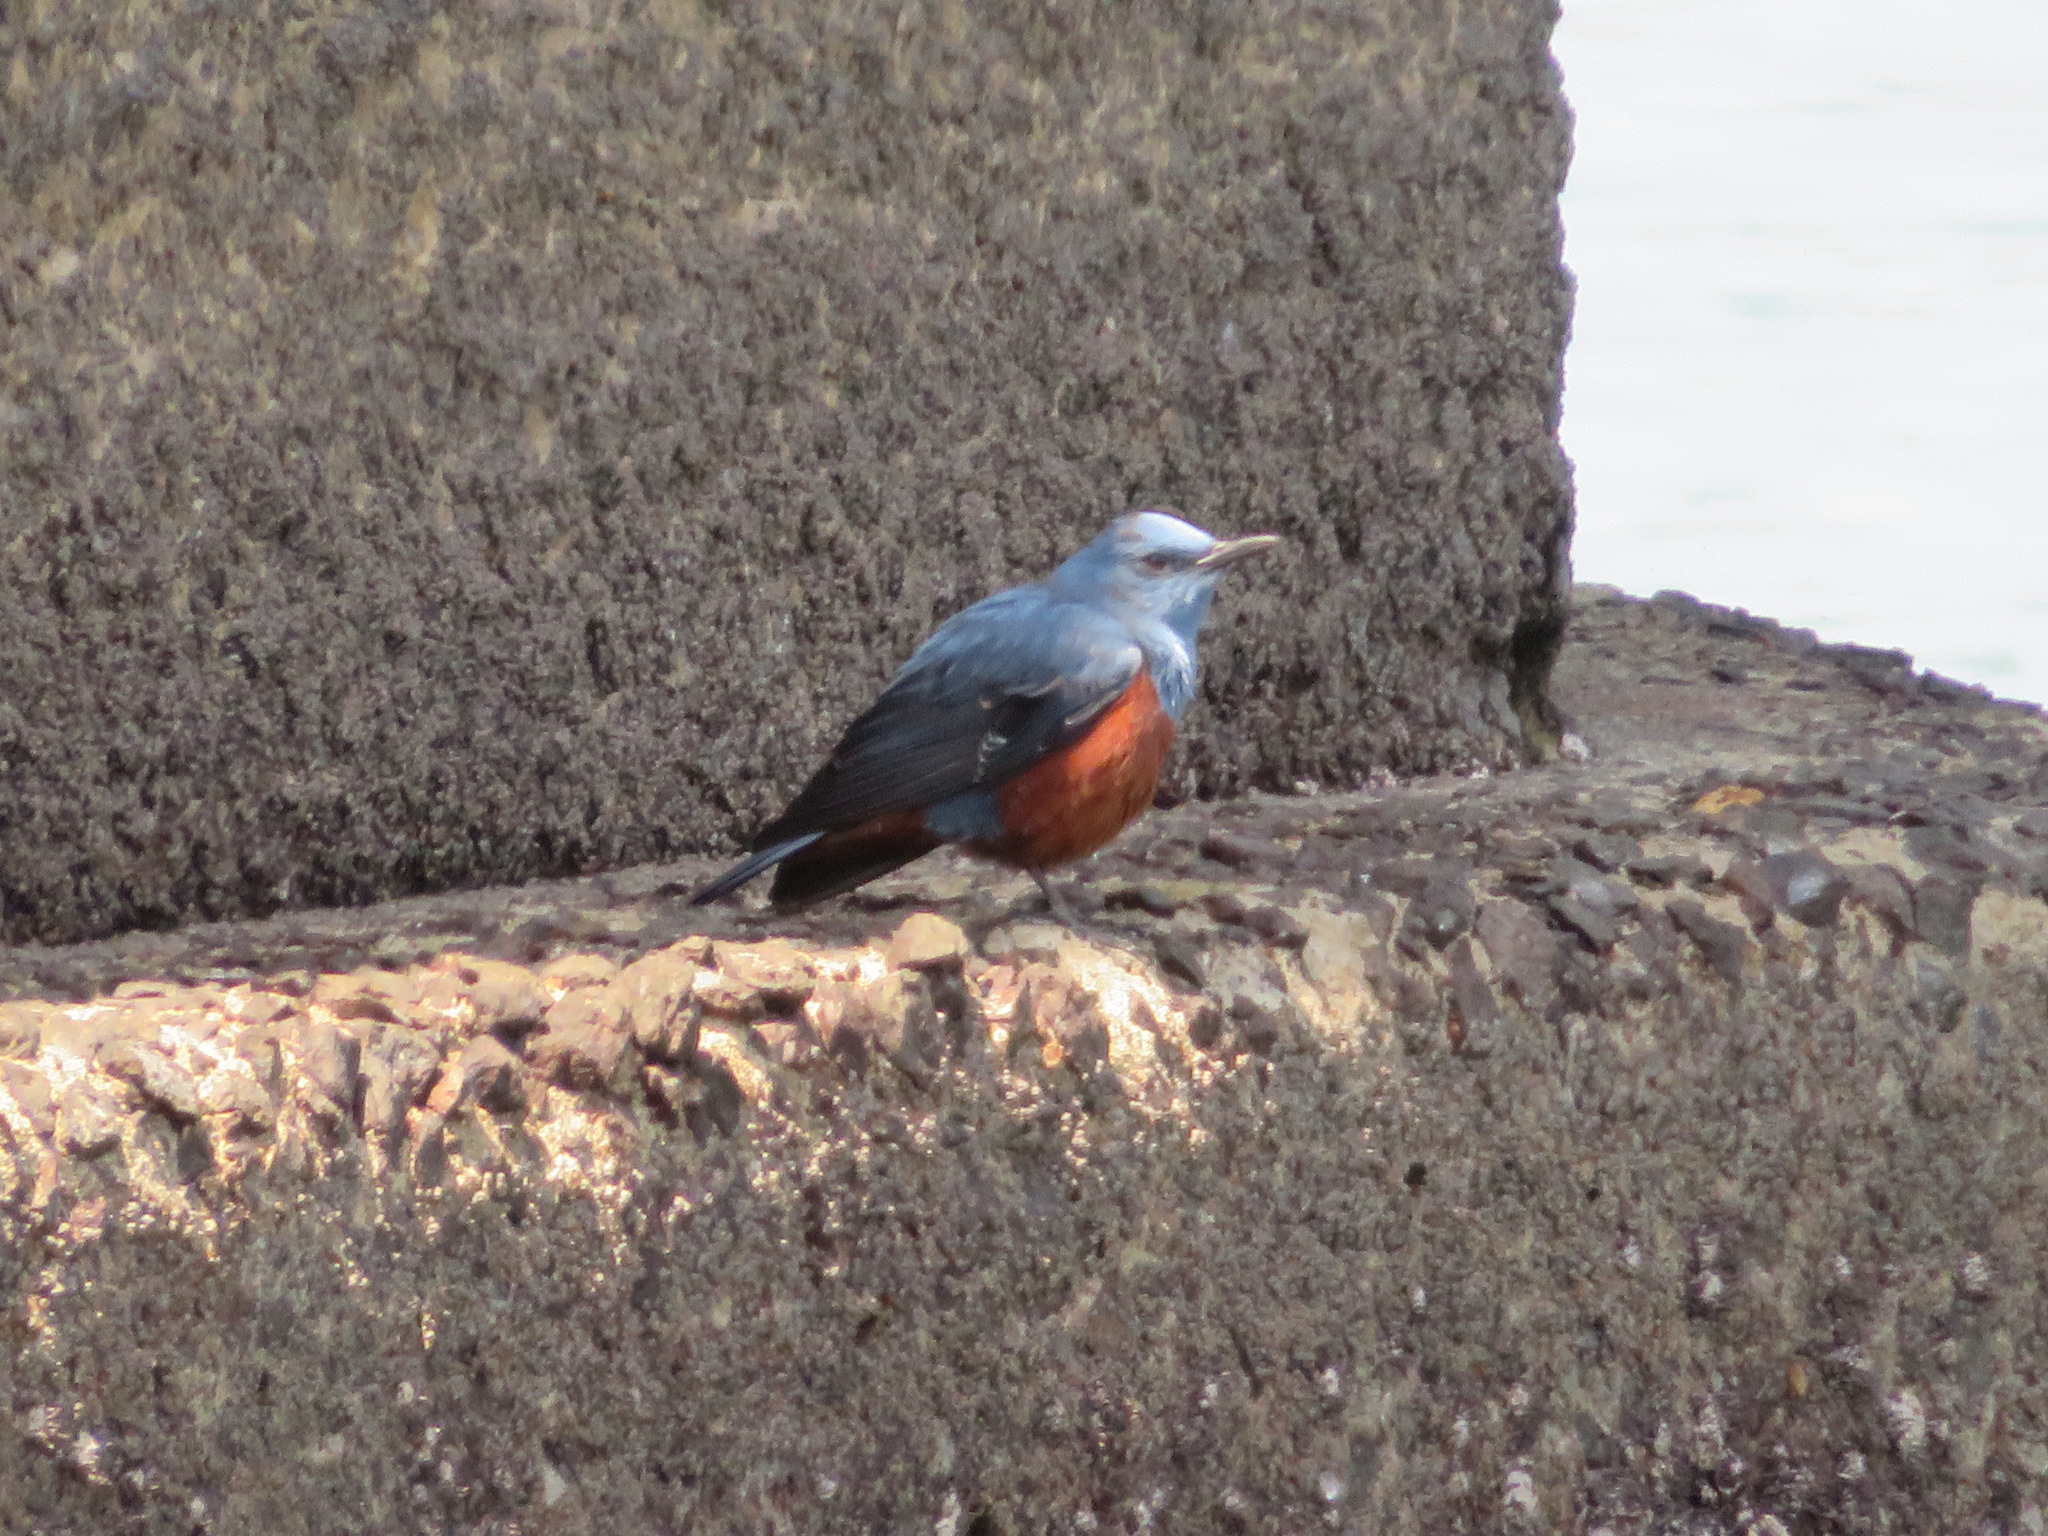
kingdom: Animalia
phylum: Chordata
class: Aves
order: Passeriformes
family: Muscicapidae
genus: Monticola
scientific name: Monticola solitarius
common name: Blue rock thrush
